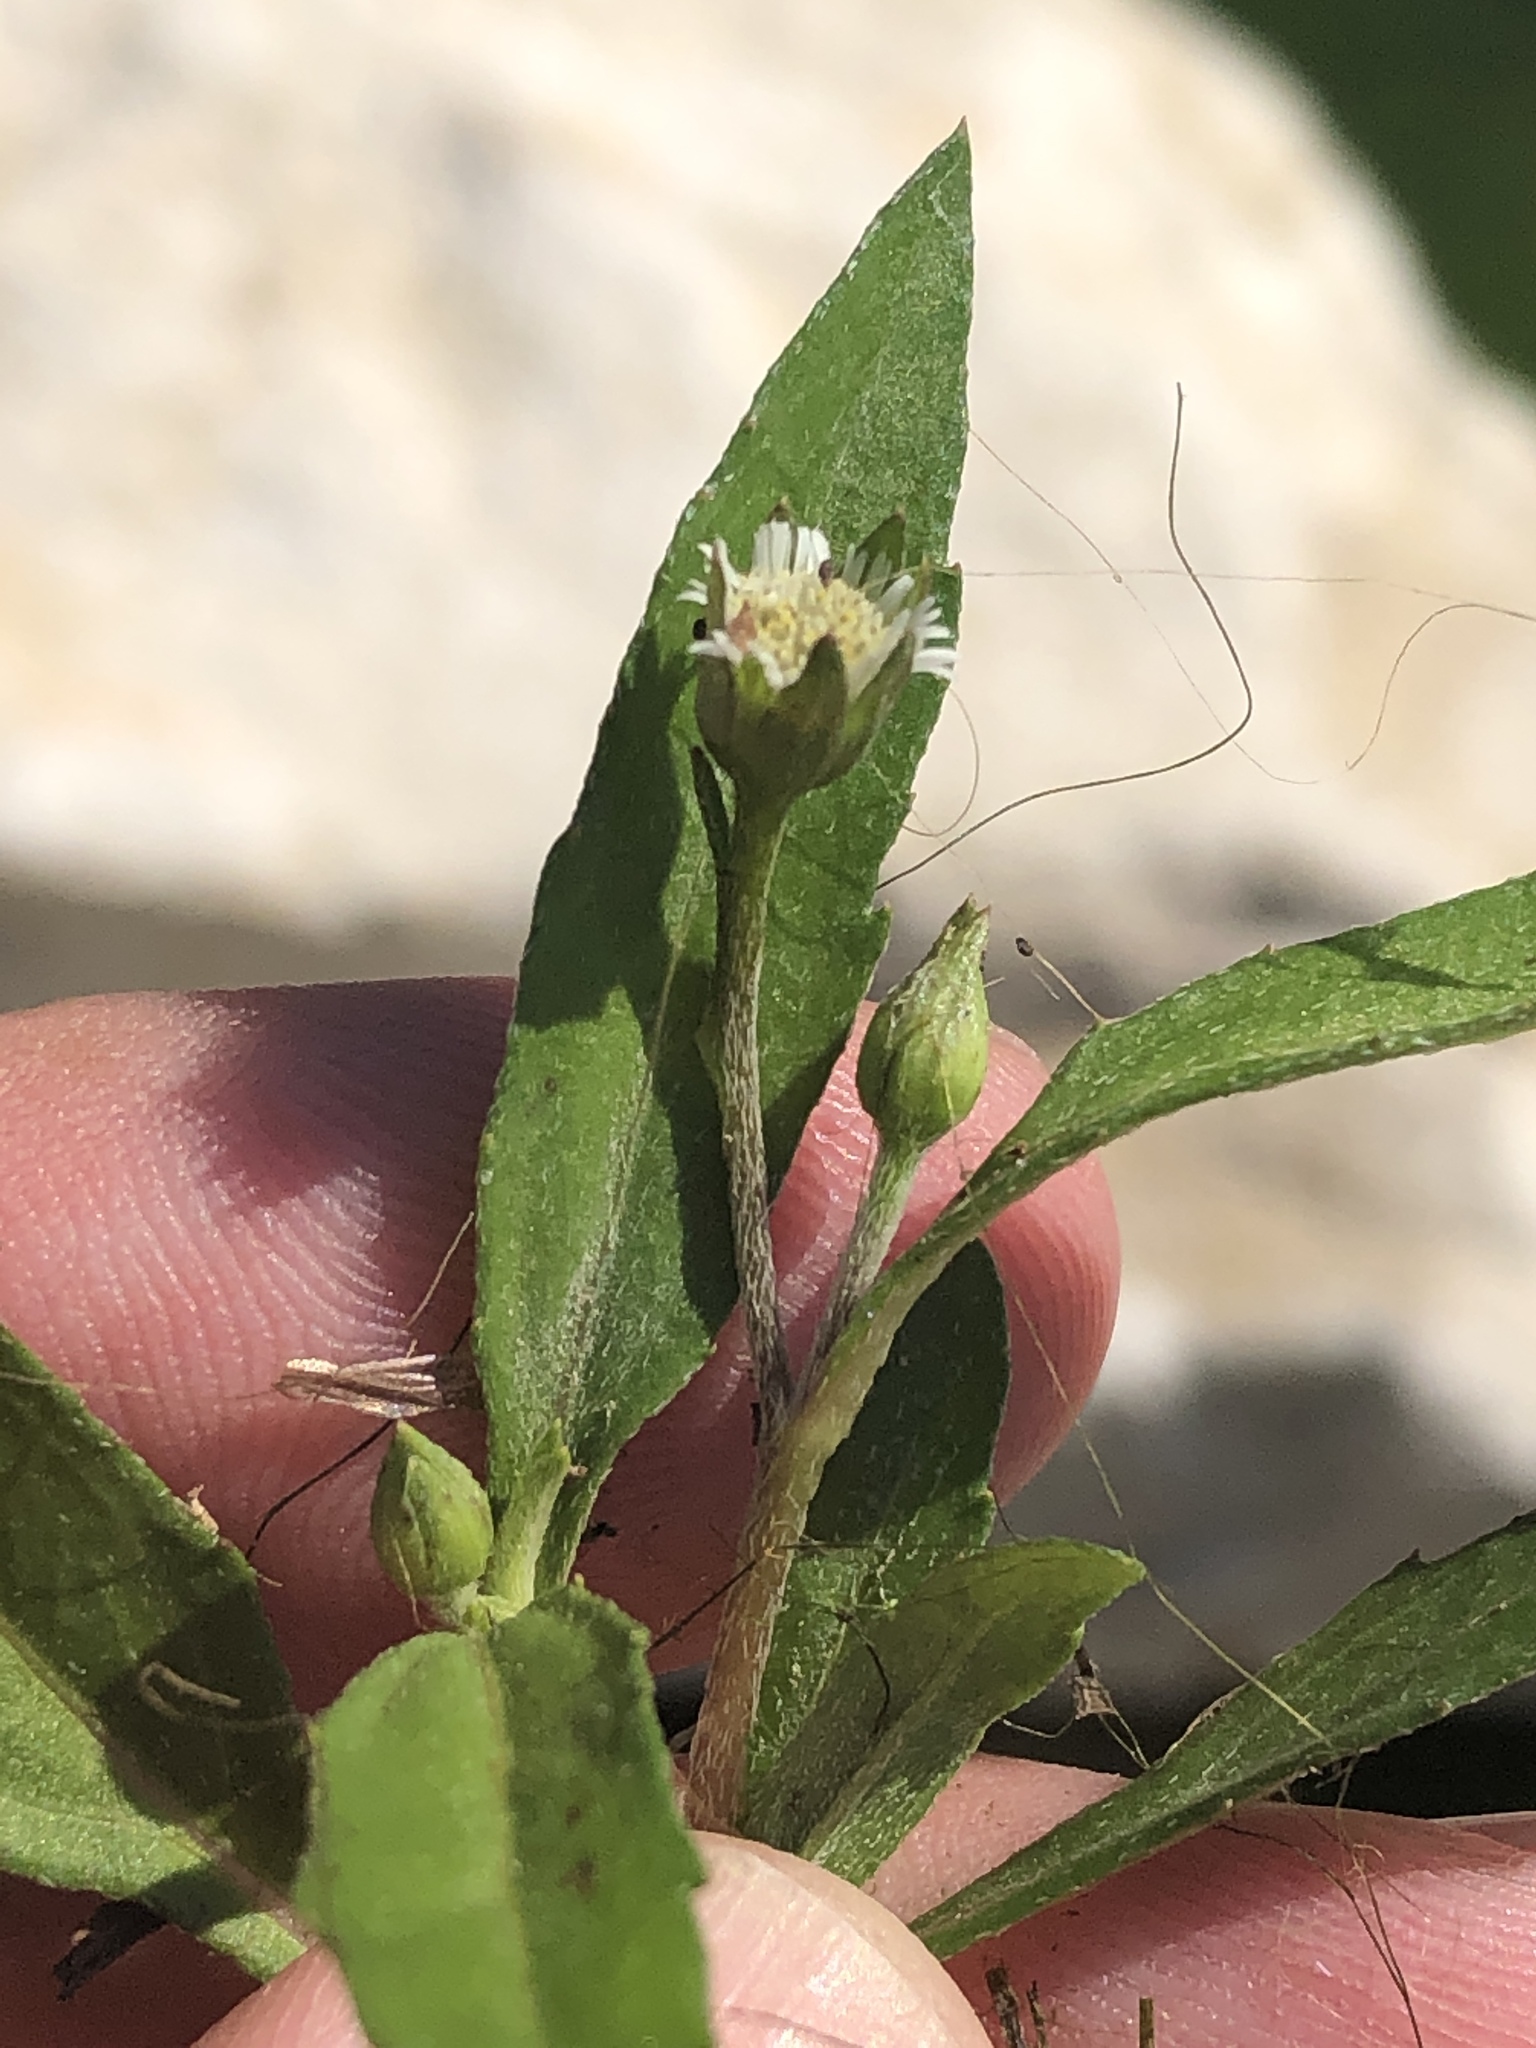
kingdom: Plantae
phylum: Tracheophyta
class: Magnoliopsida
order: Asterales
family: Asteraceae
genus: Eclipta
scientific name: Eclipta prostrata
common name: False daisy
